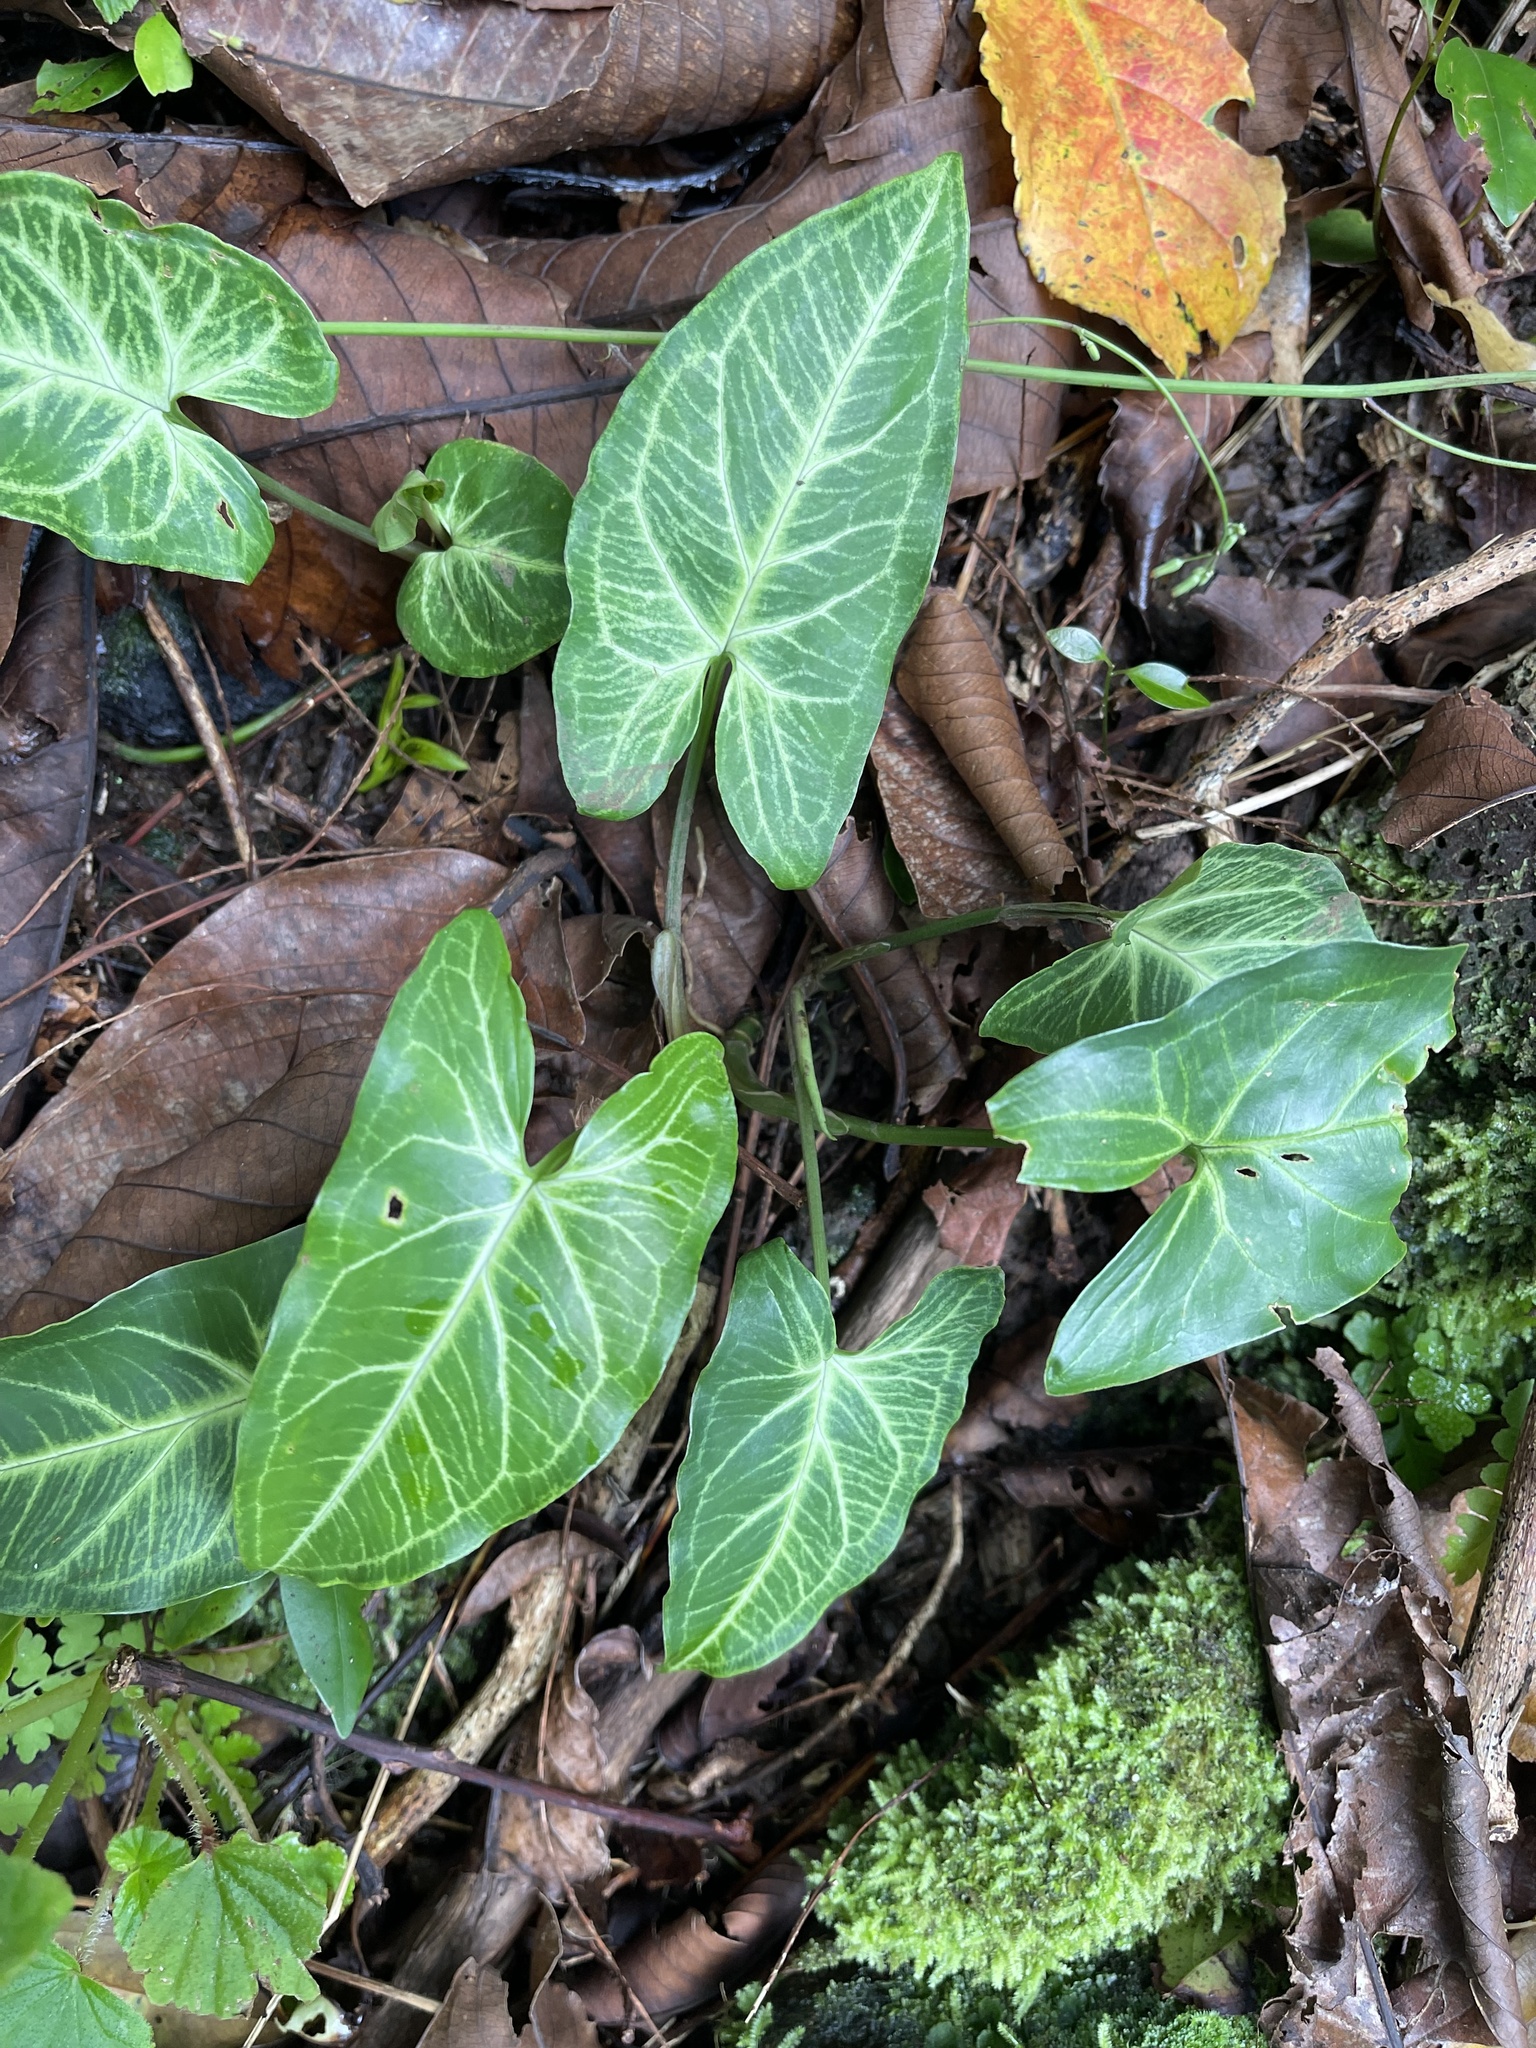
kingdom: Plantae
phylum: Tracheophyta
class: Liliopsida
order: Alismatales
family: Araceae
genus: Syngonium
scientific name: Syngonium podophyllum
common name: American evergreen
